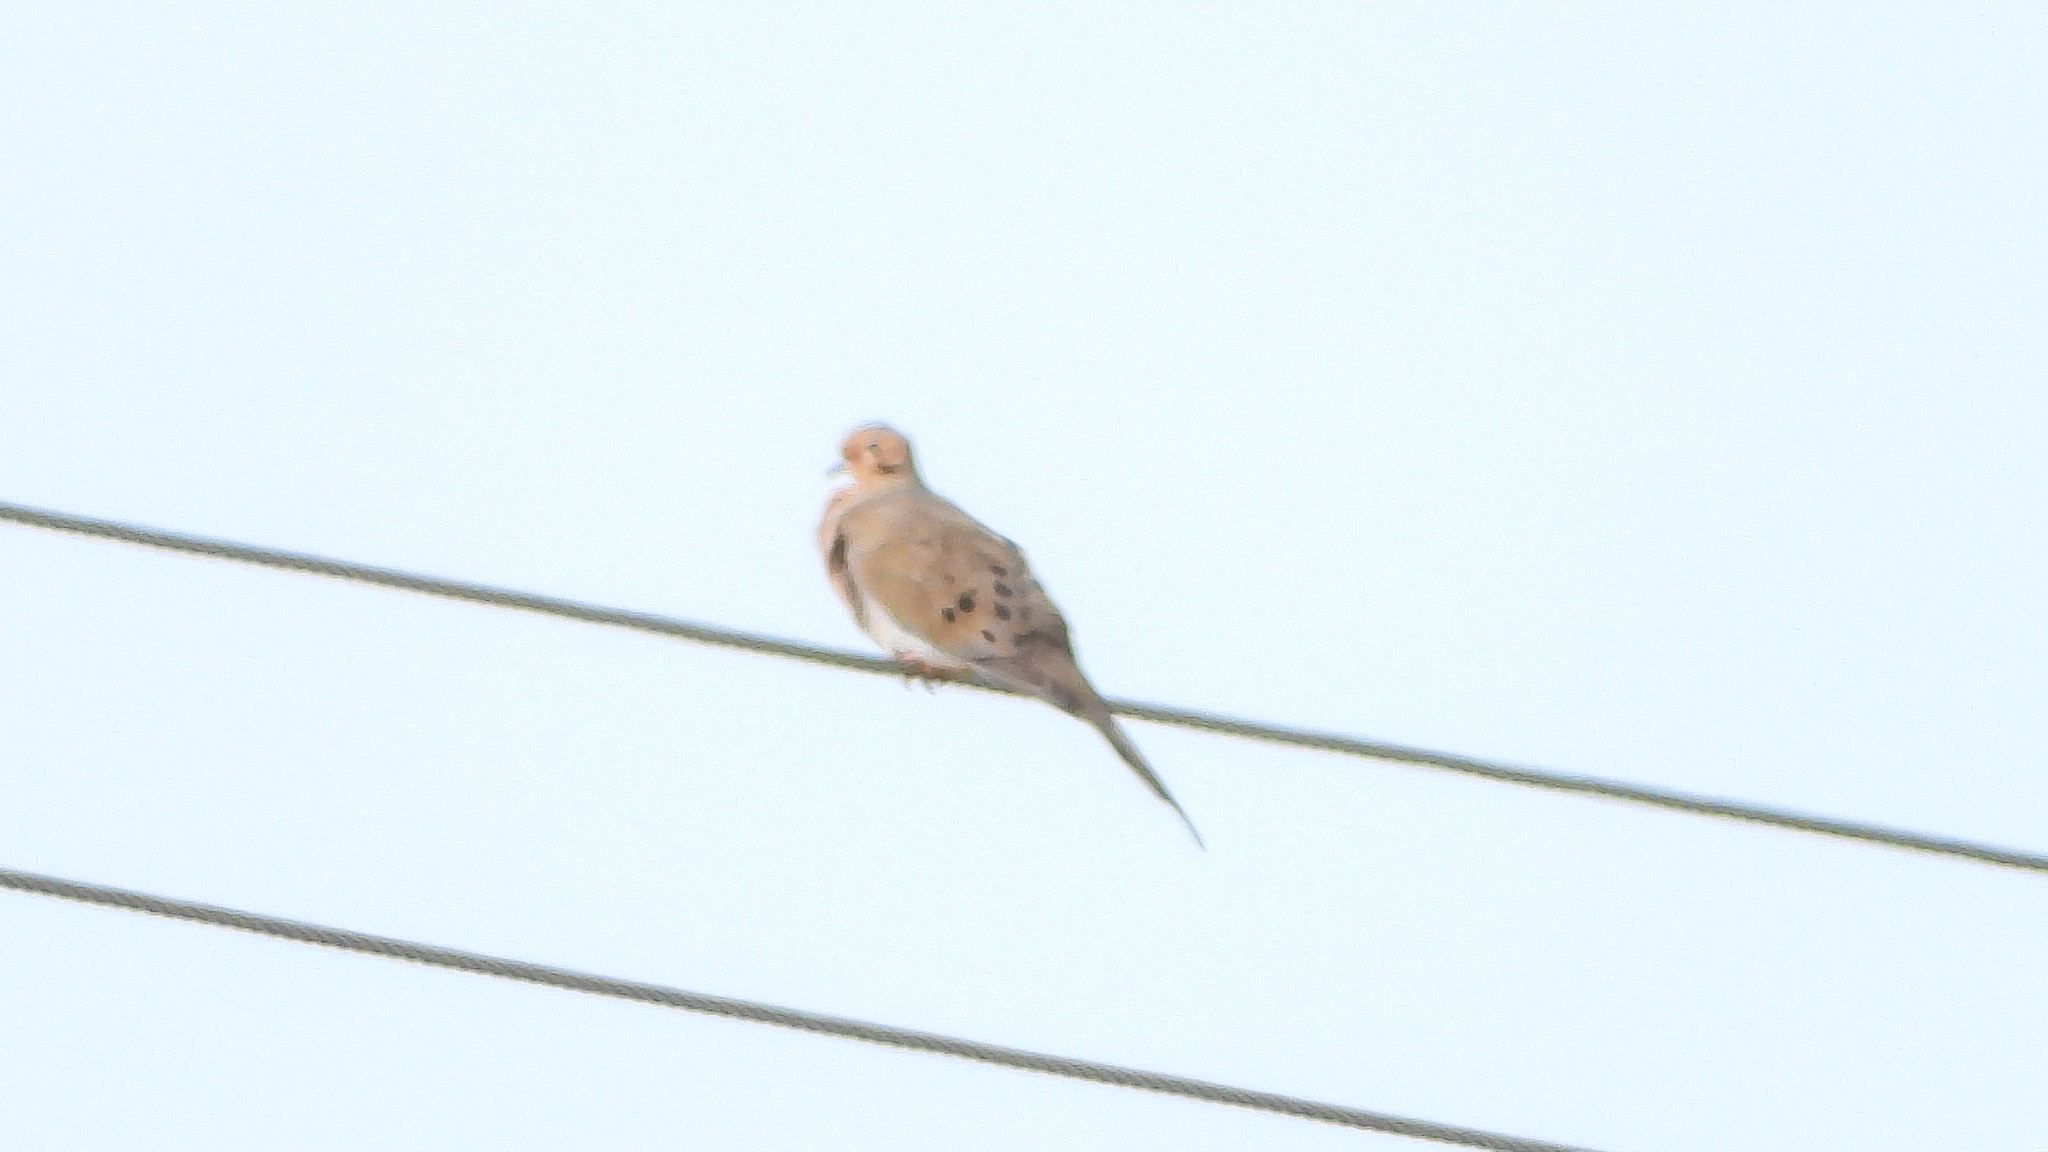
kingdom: Animalia
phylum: Chordata
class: Aves
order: Columbiformes
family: Columbidae
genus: Zenaida
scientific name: Zenaida macroura
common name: Mourning dove
